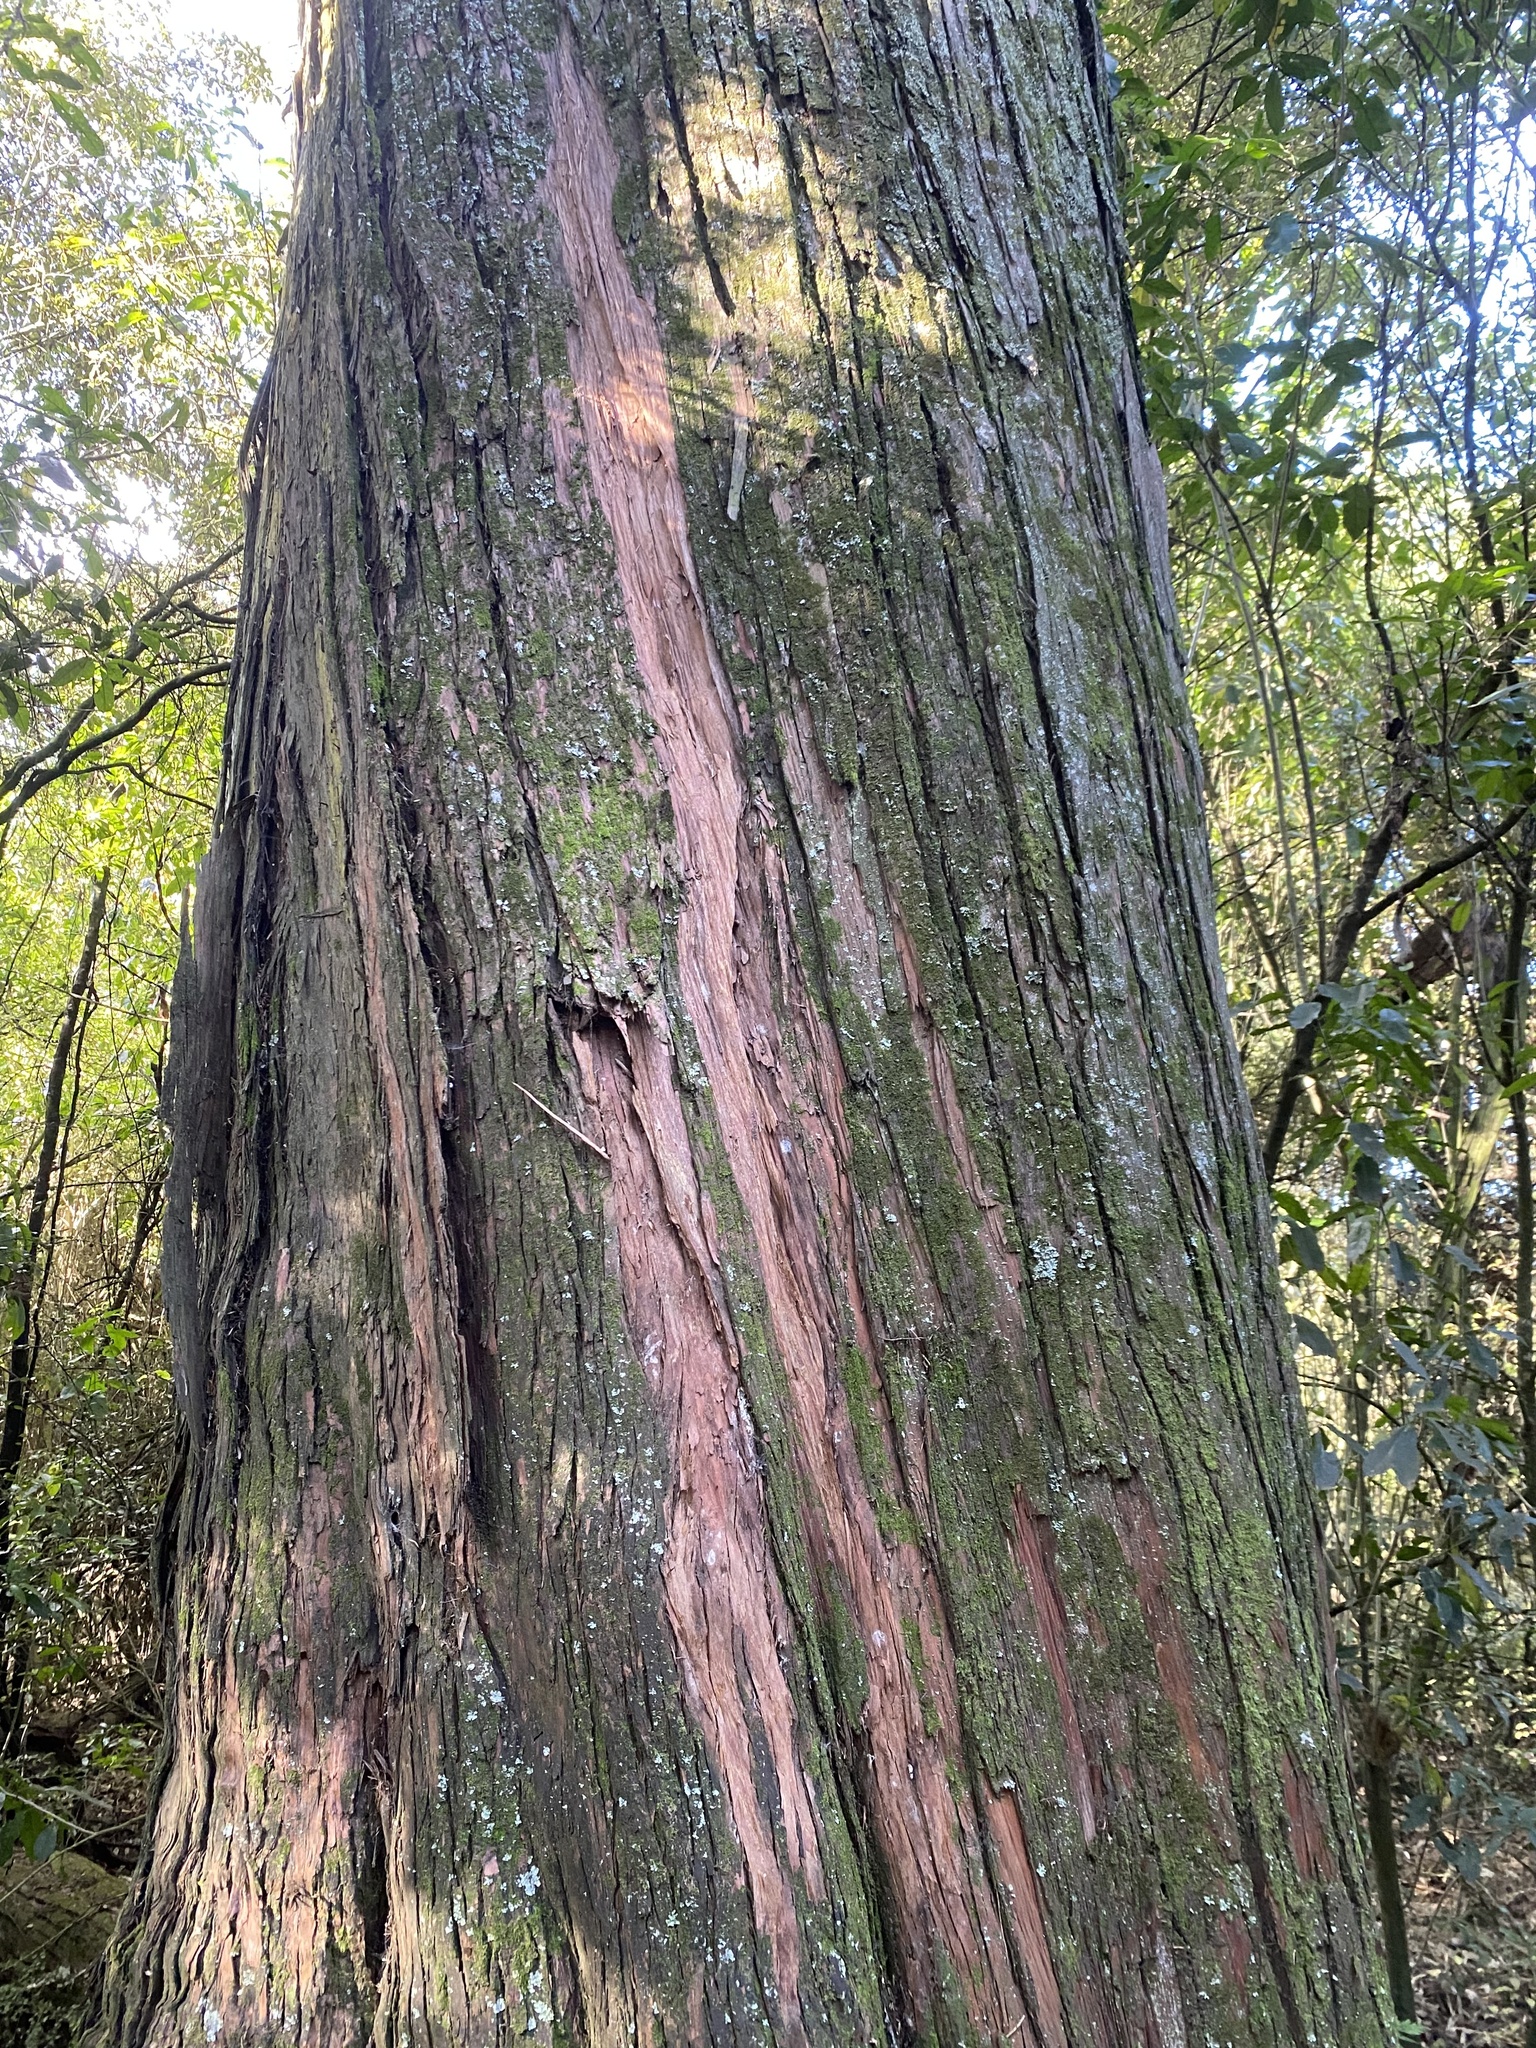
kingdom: Plantae
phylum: Tracheophyta
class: Pinopsida
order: Pinales
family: Podocarpaceae
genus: Podocarpus
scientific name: Podocarpus totara
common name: Totara
